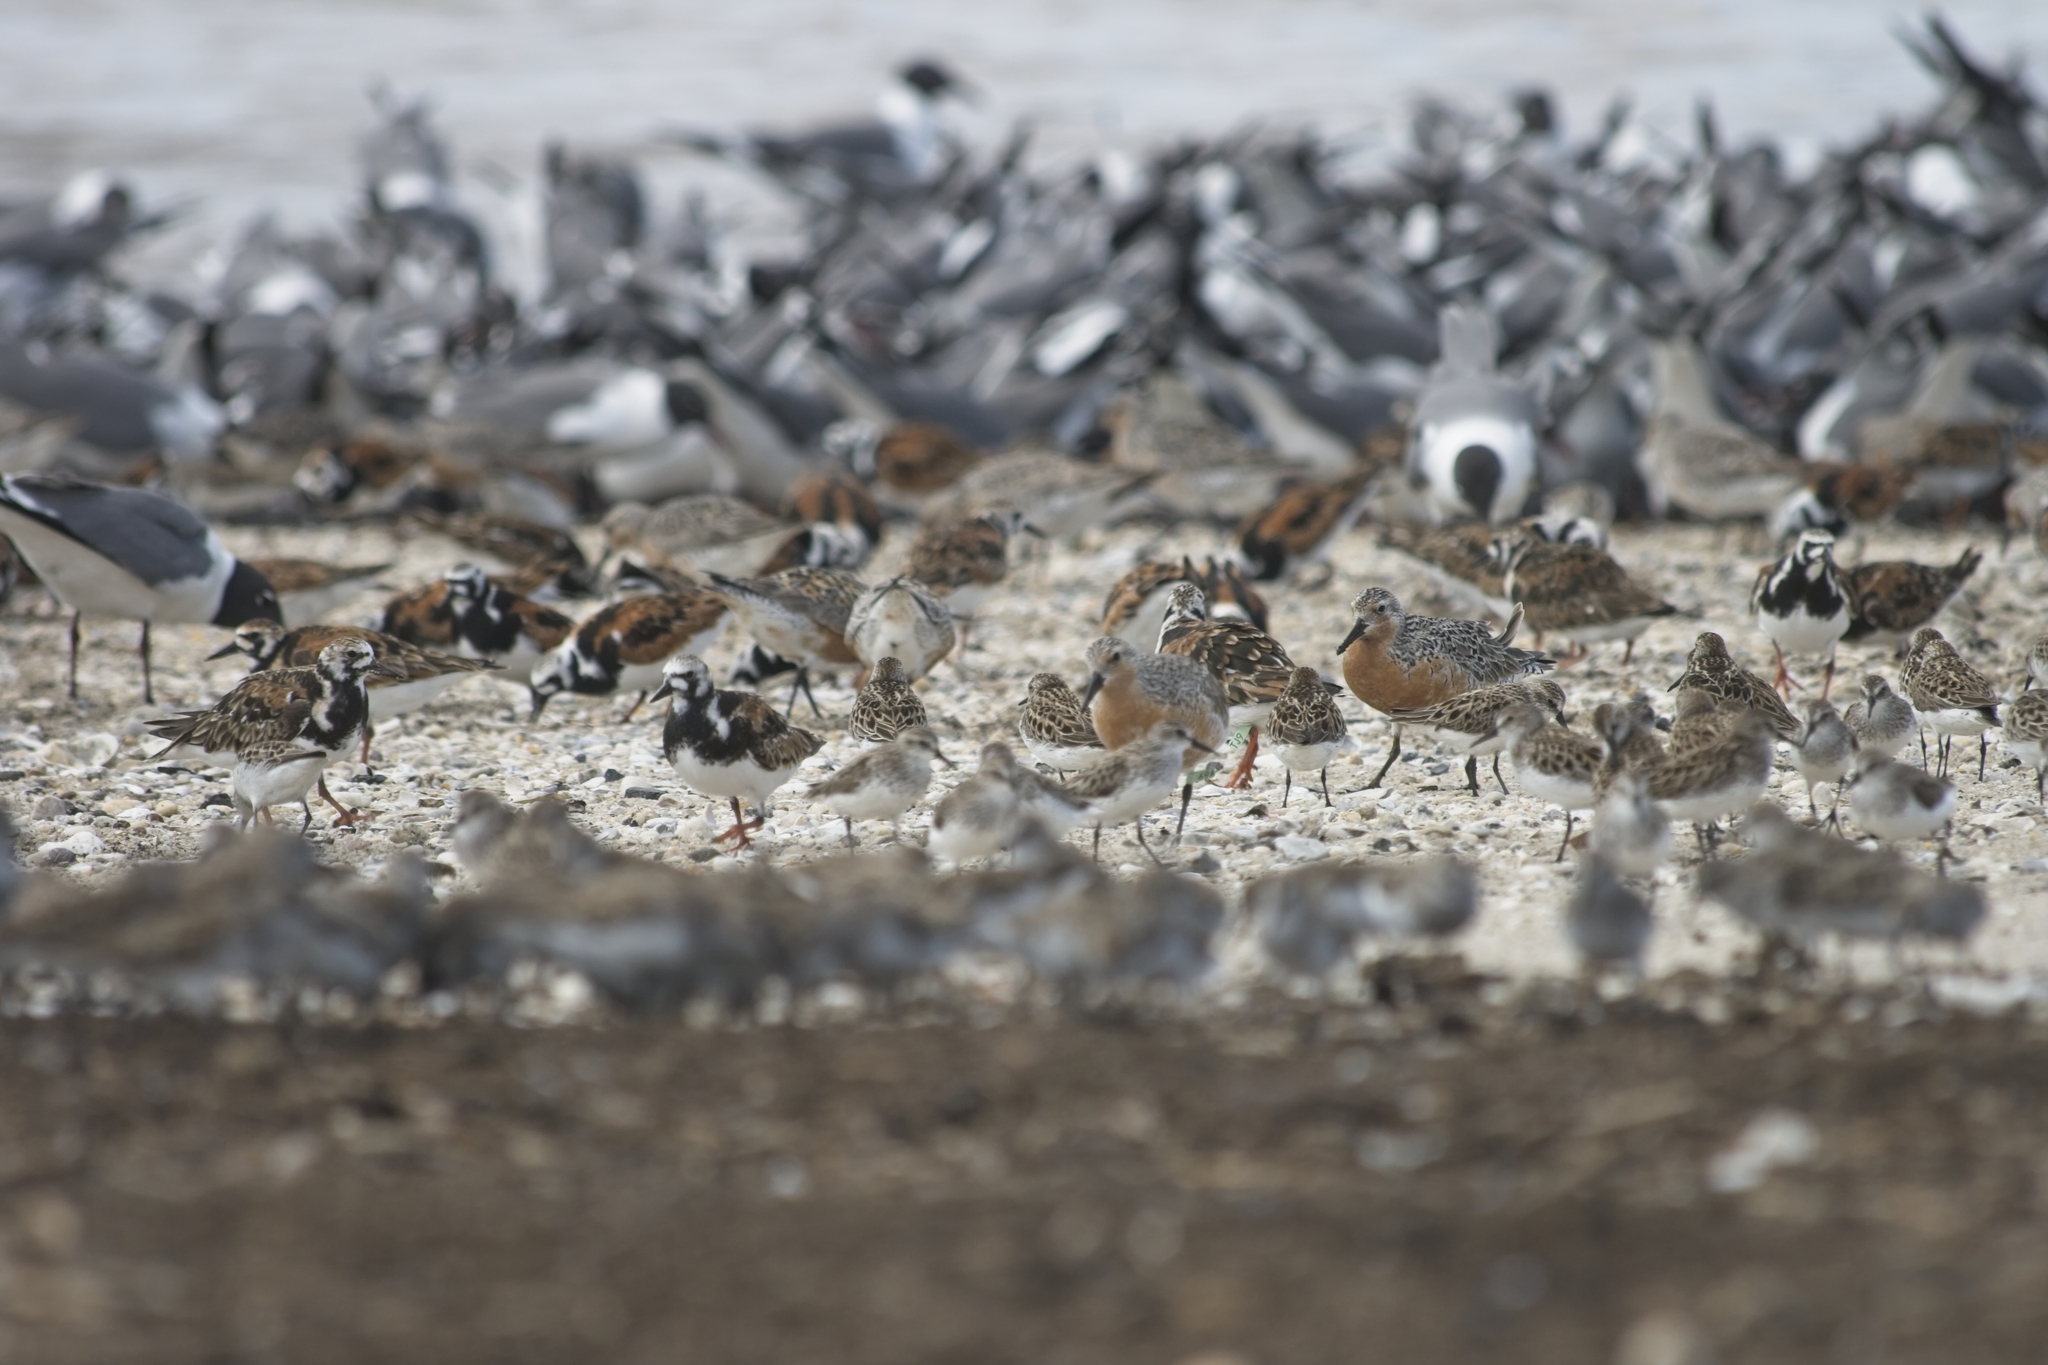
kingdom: Animalia
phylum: Chordata
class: Aves
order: Charadriiformes
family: Laridae
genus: Leucophaeus
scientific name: Leucophaeus atricilla
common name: Laughing gull
